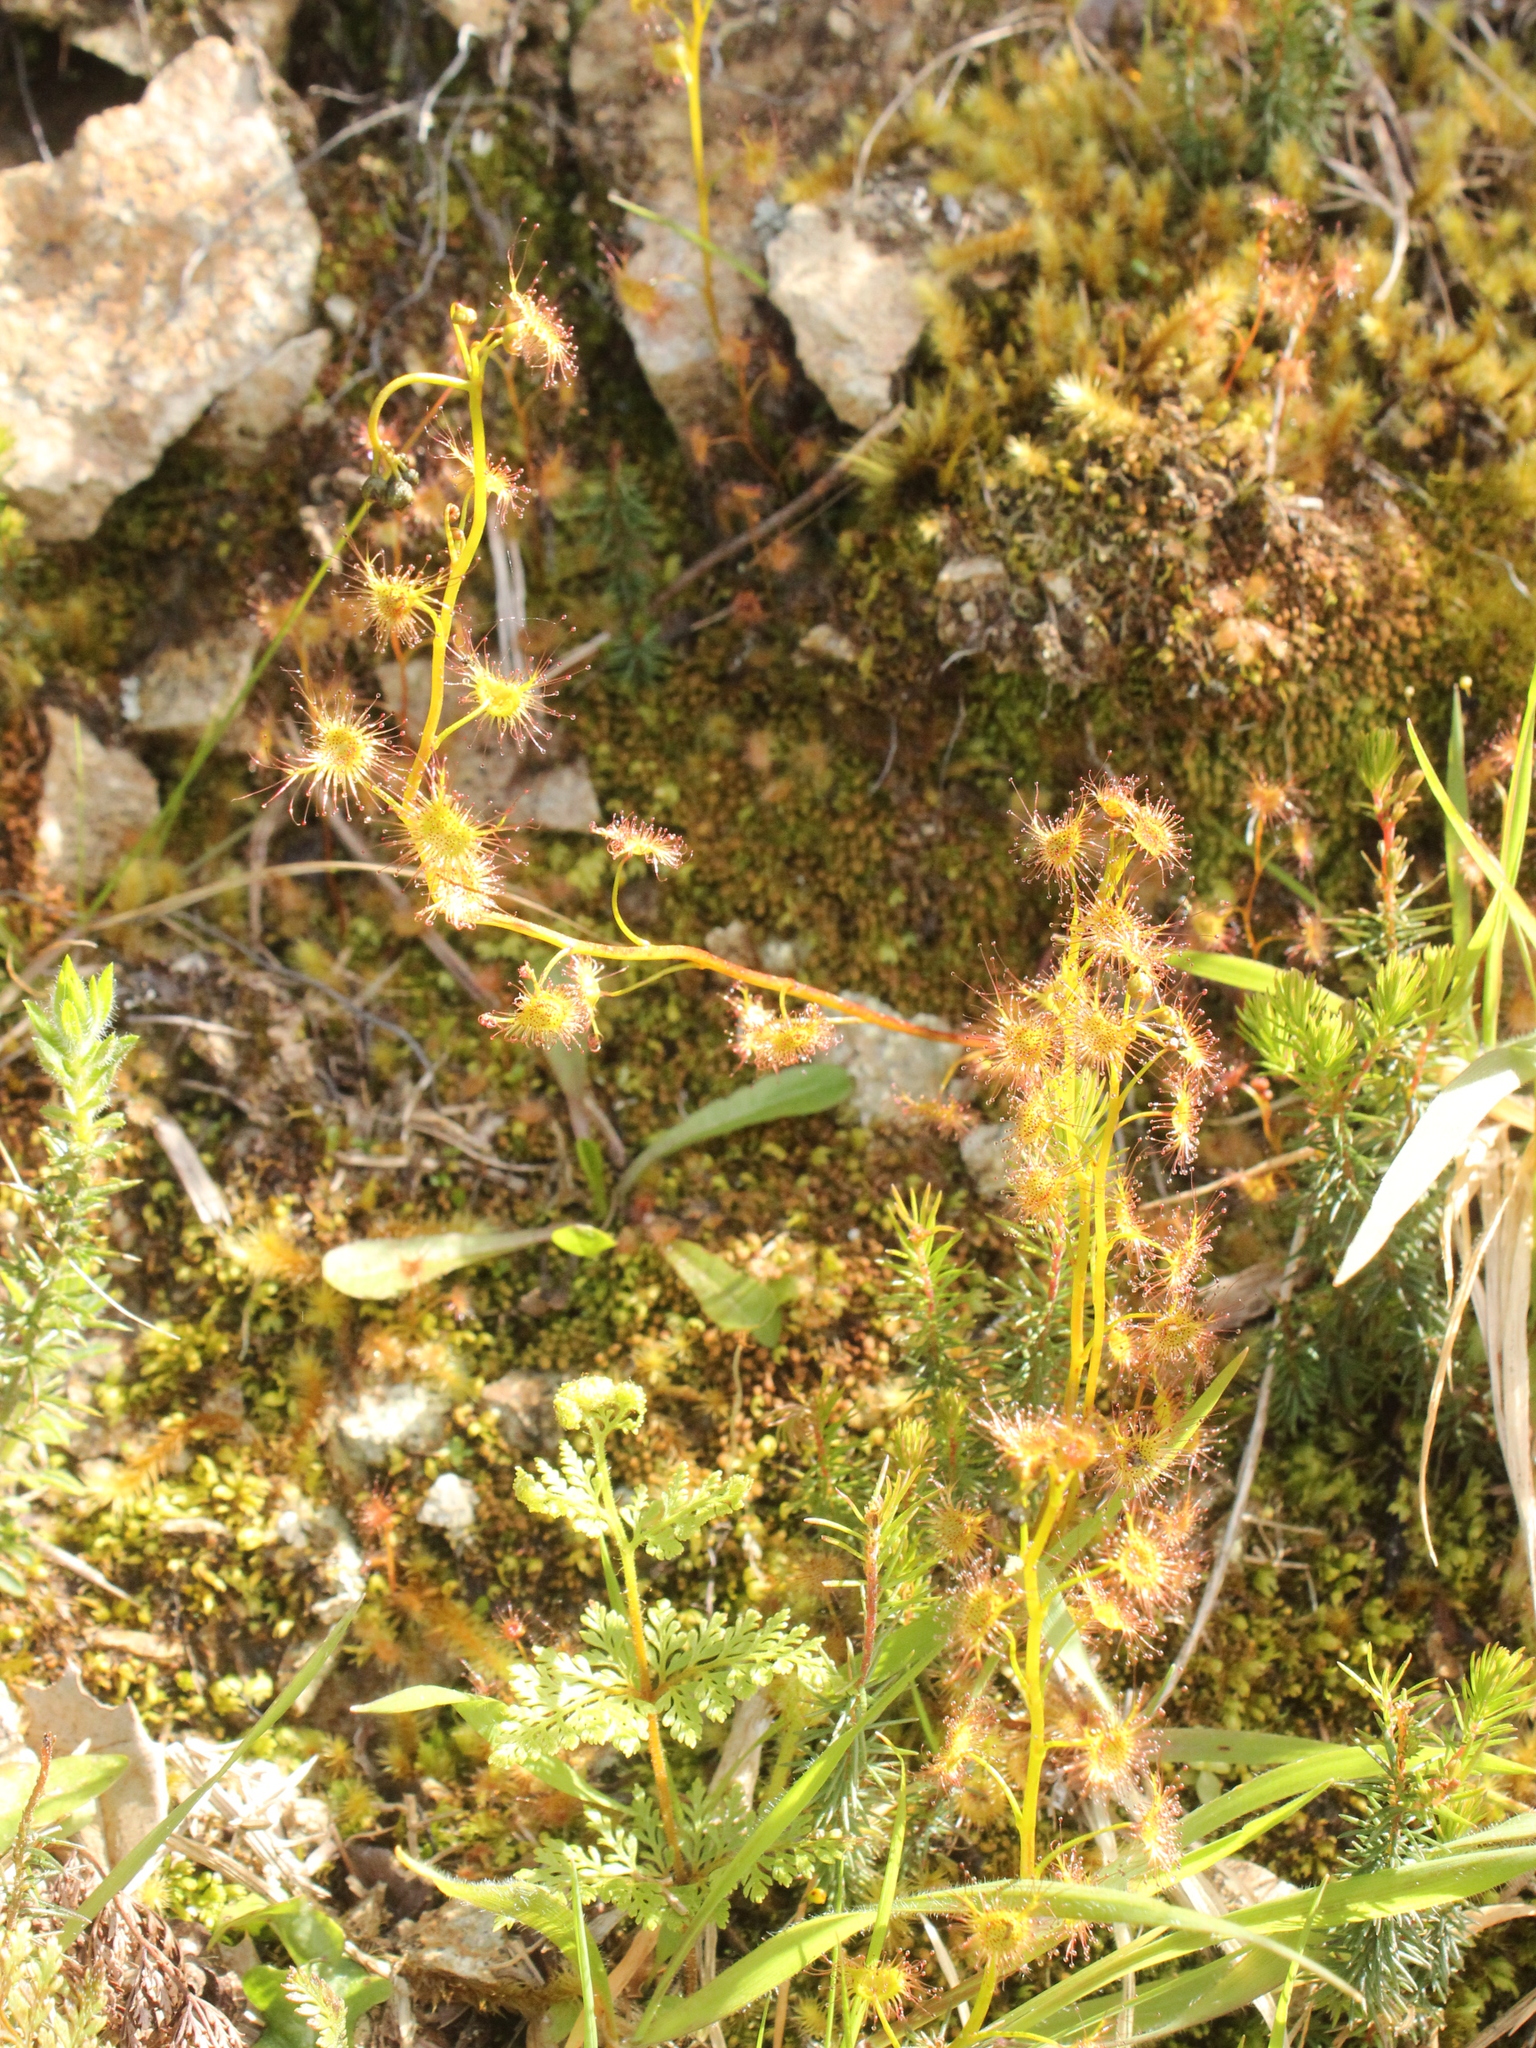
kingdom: Plantae
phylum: Tracheophyta
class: Magnoliopsida
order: Caryophyllales
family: Droseraceae
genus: Drosera
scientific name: Drosera peltata
